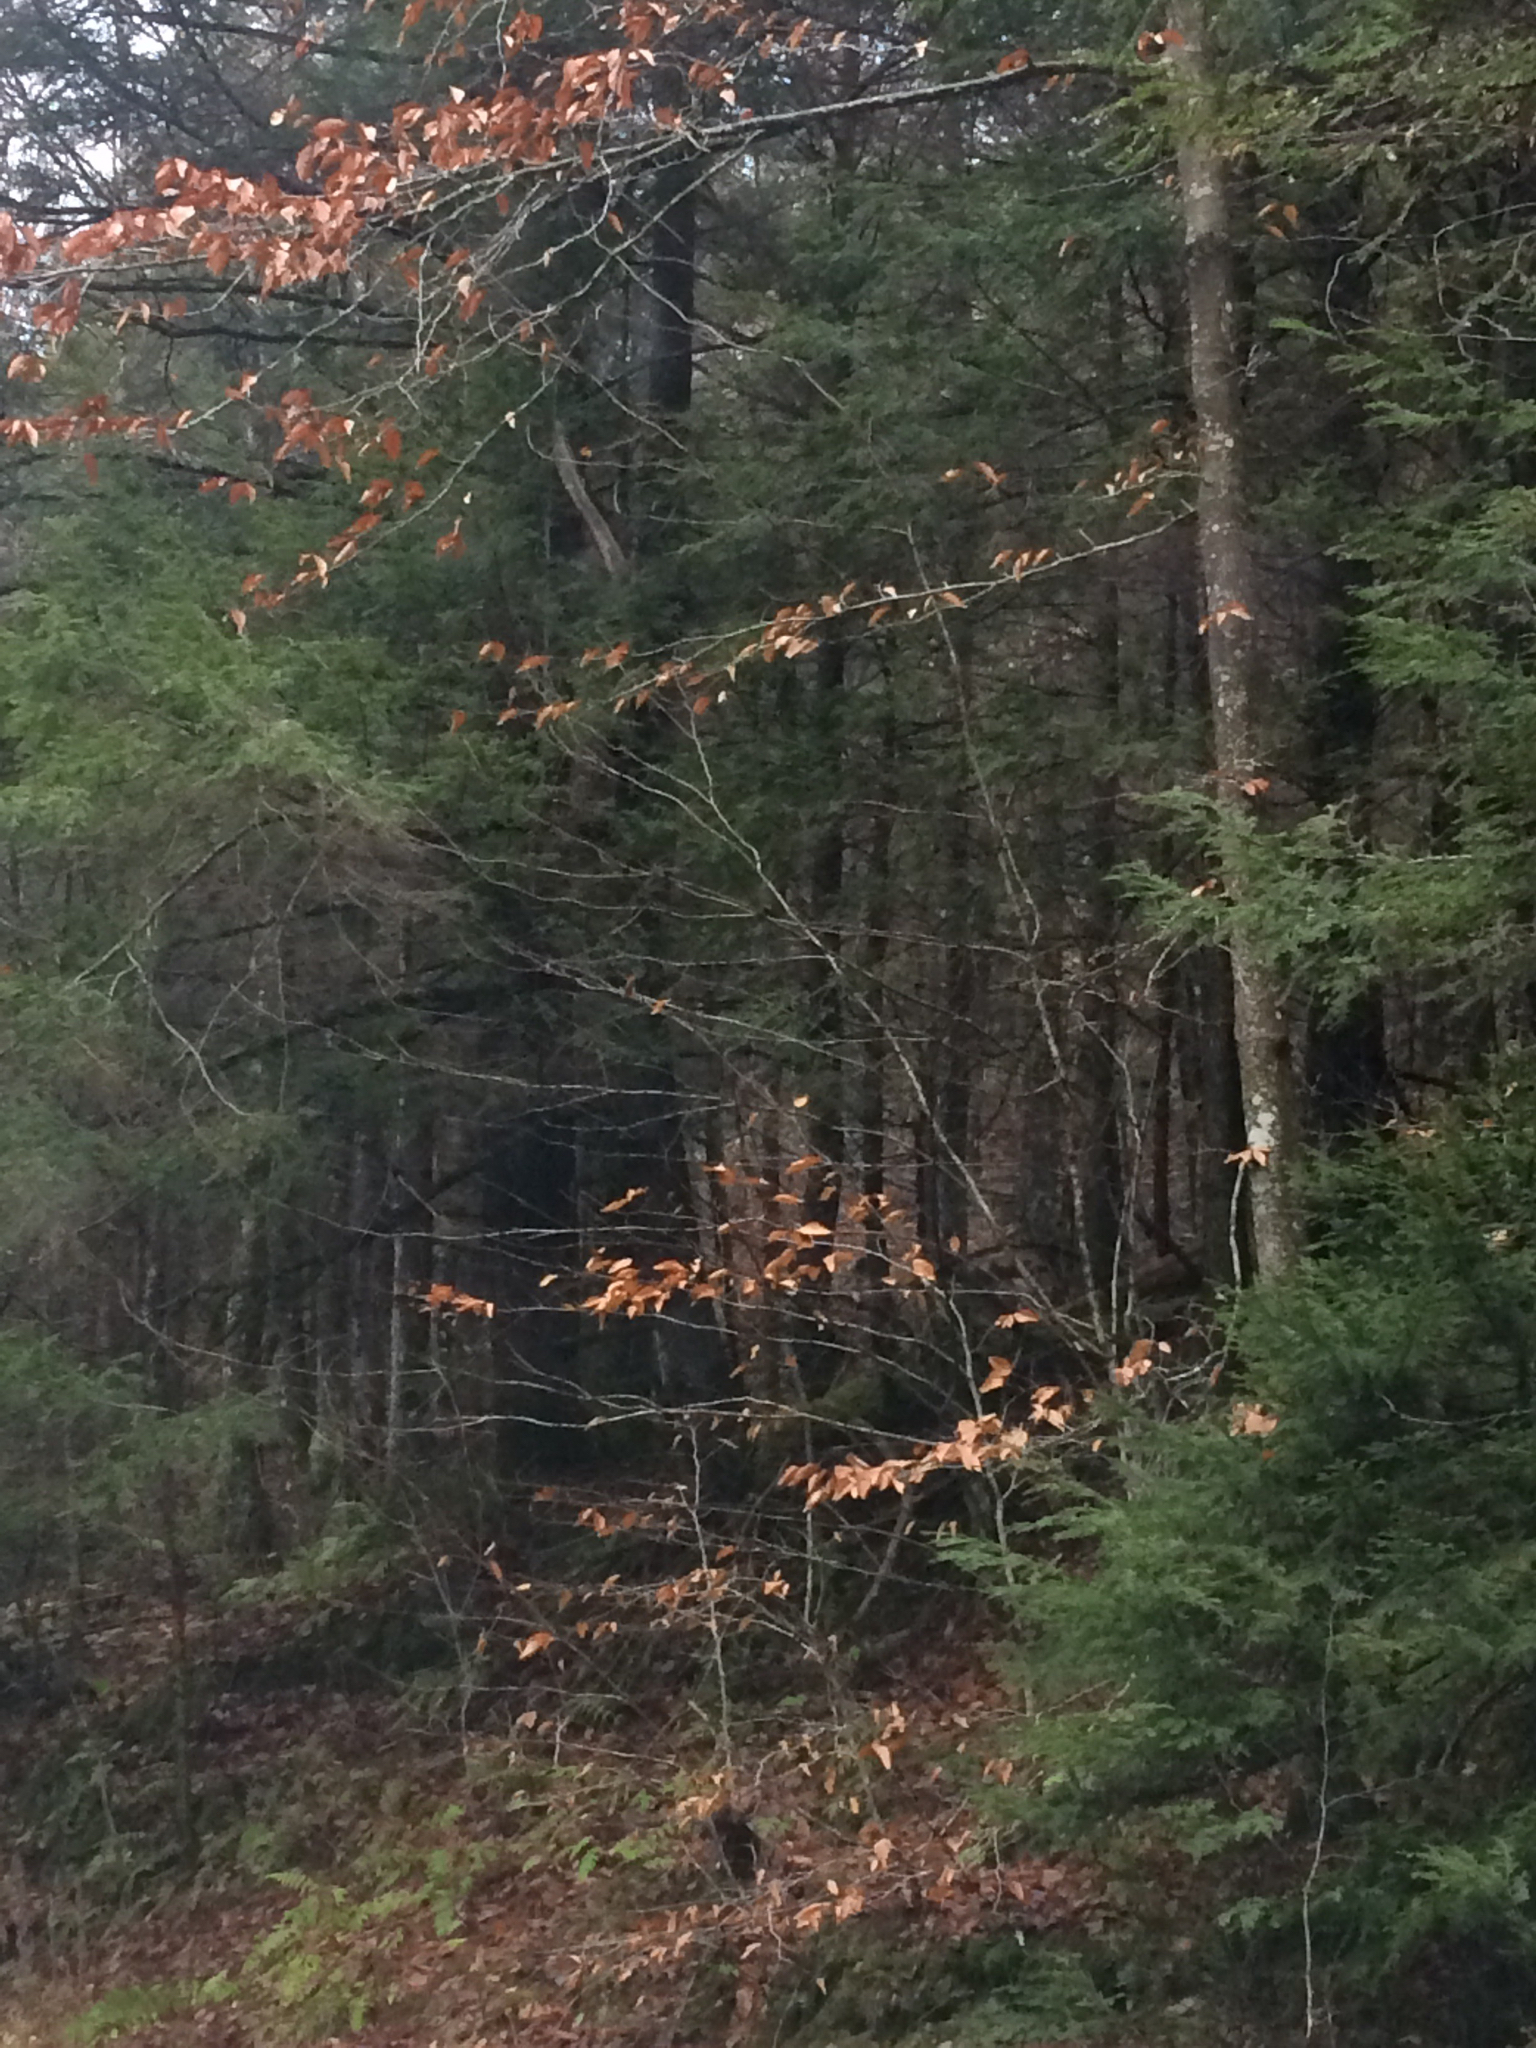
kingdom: Plantae
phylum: Tracheophyta
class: Magnoliopsida
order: Fagales
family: Fagaceae
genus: Fagus
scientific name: Fagus grandifolia
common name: American beech
